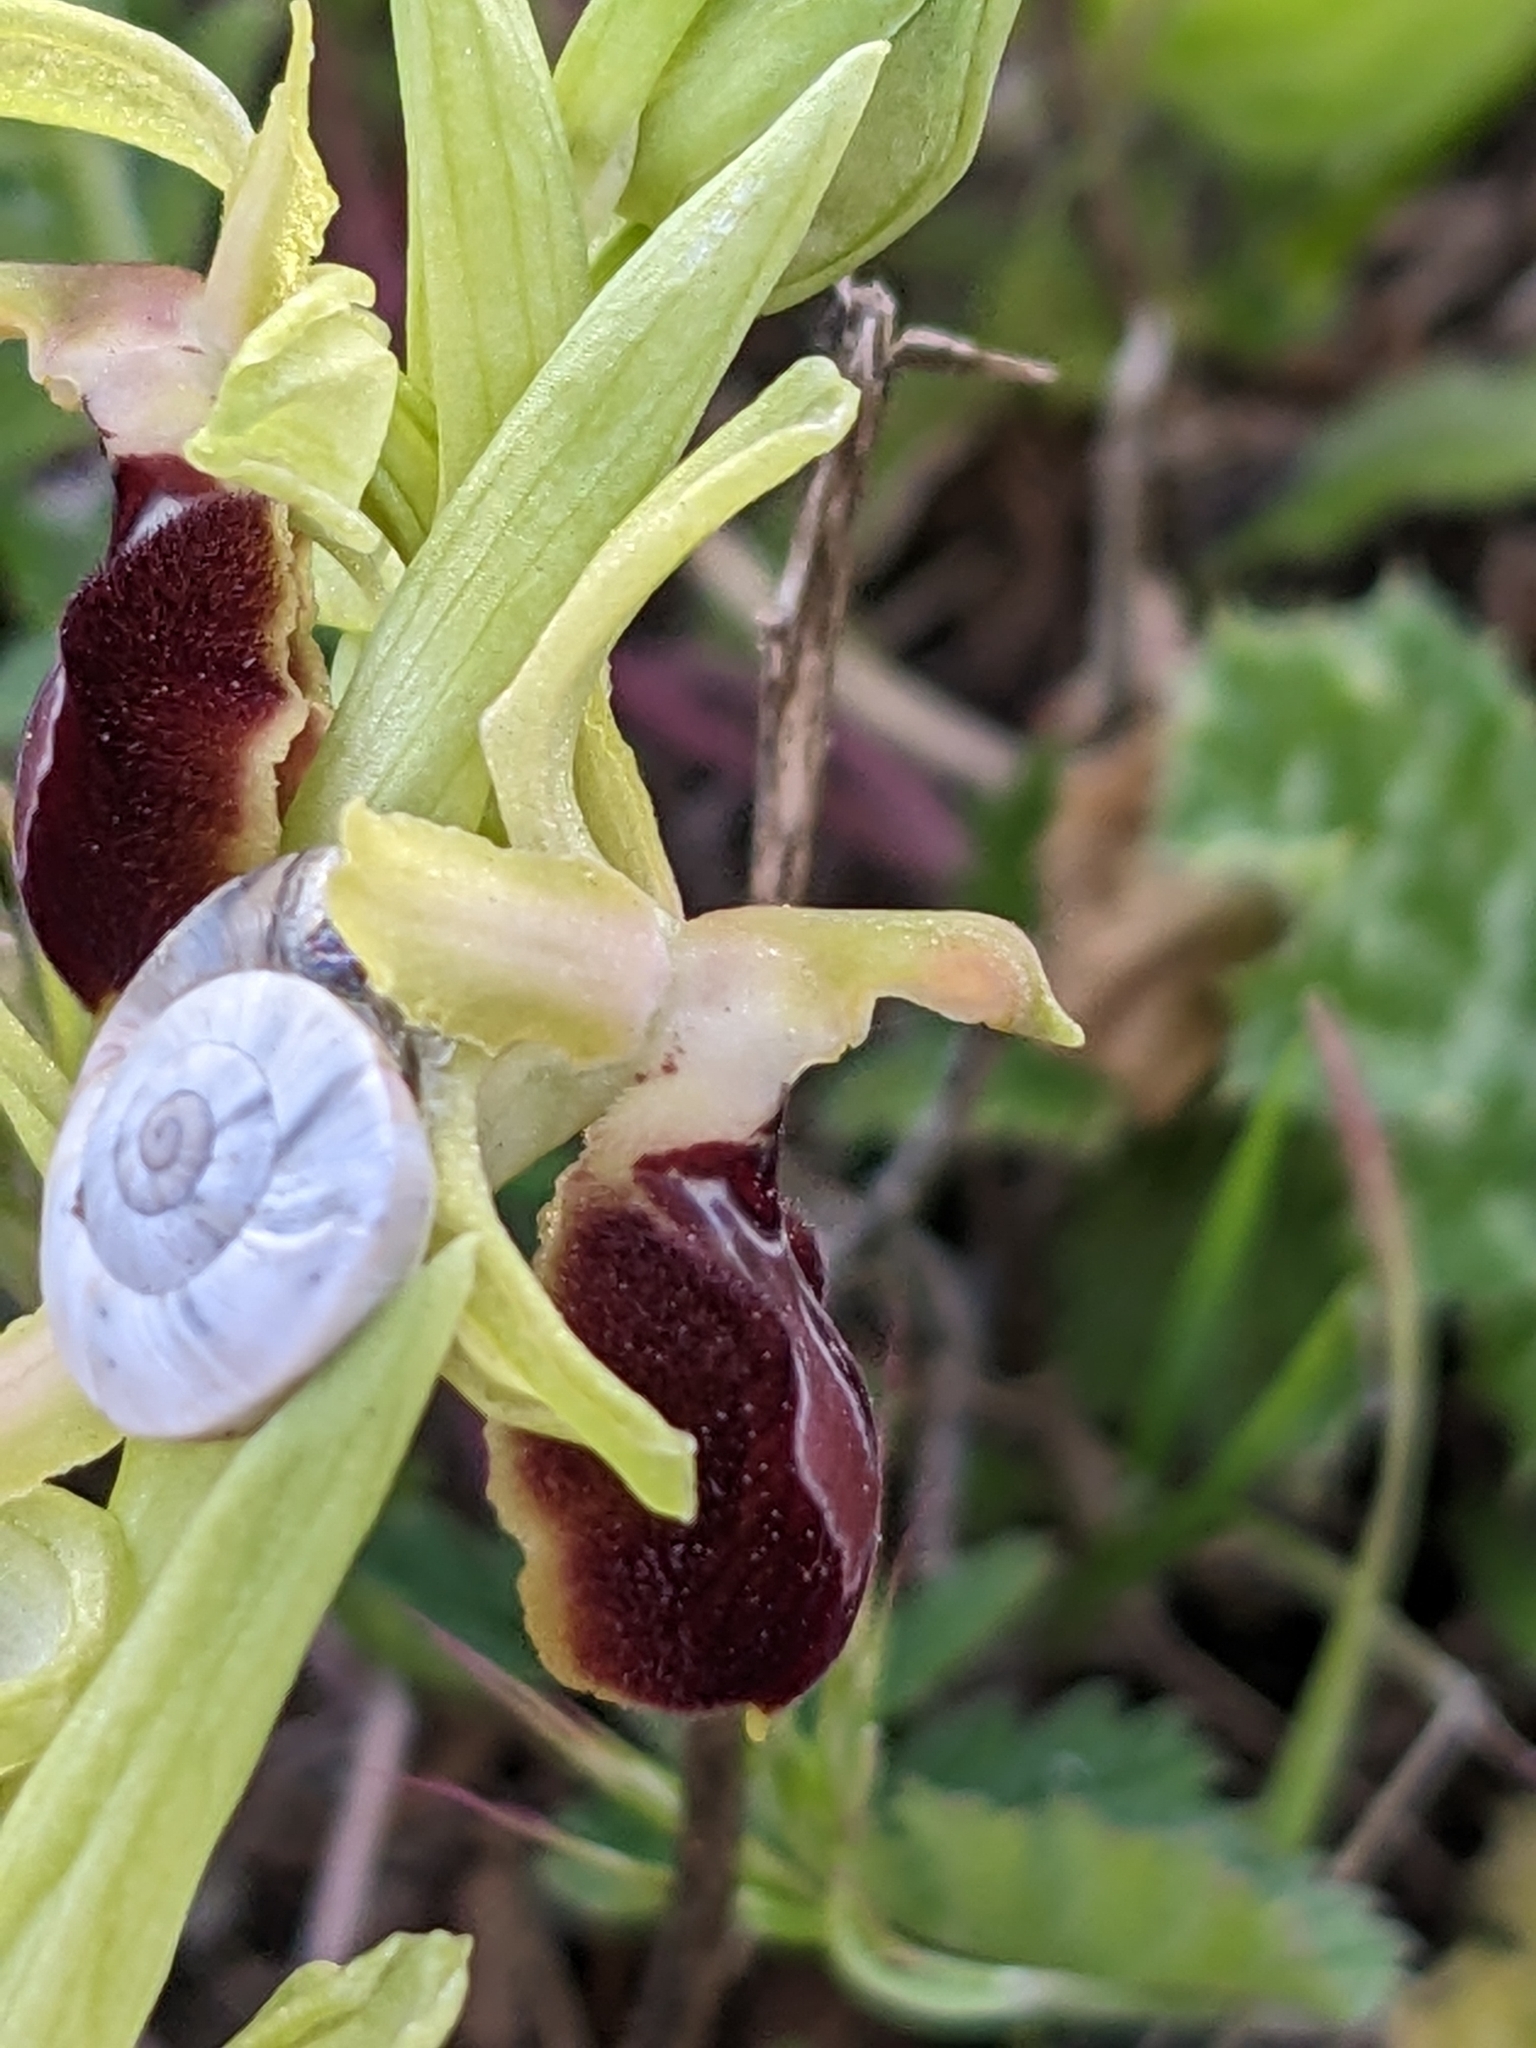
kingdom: Plantae
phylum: Tracheophyta
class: Liliopsida
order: Asparagales
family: Orchidaceae
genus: Ophrys
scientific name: Ophrys arachnitiformis
